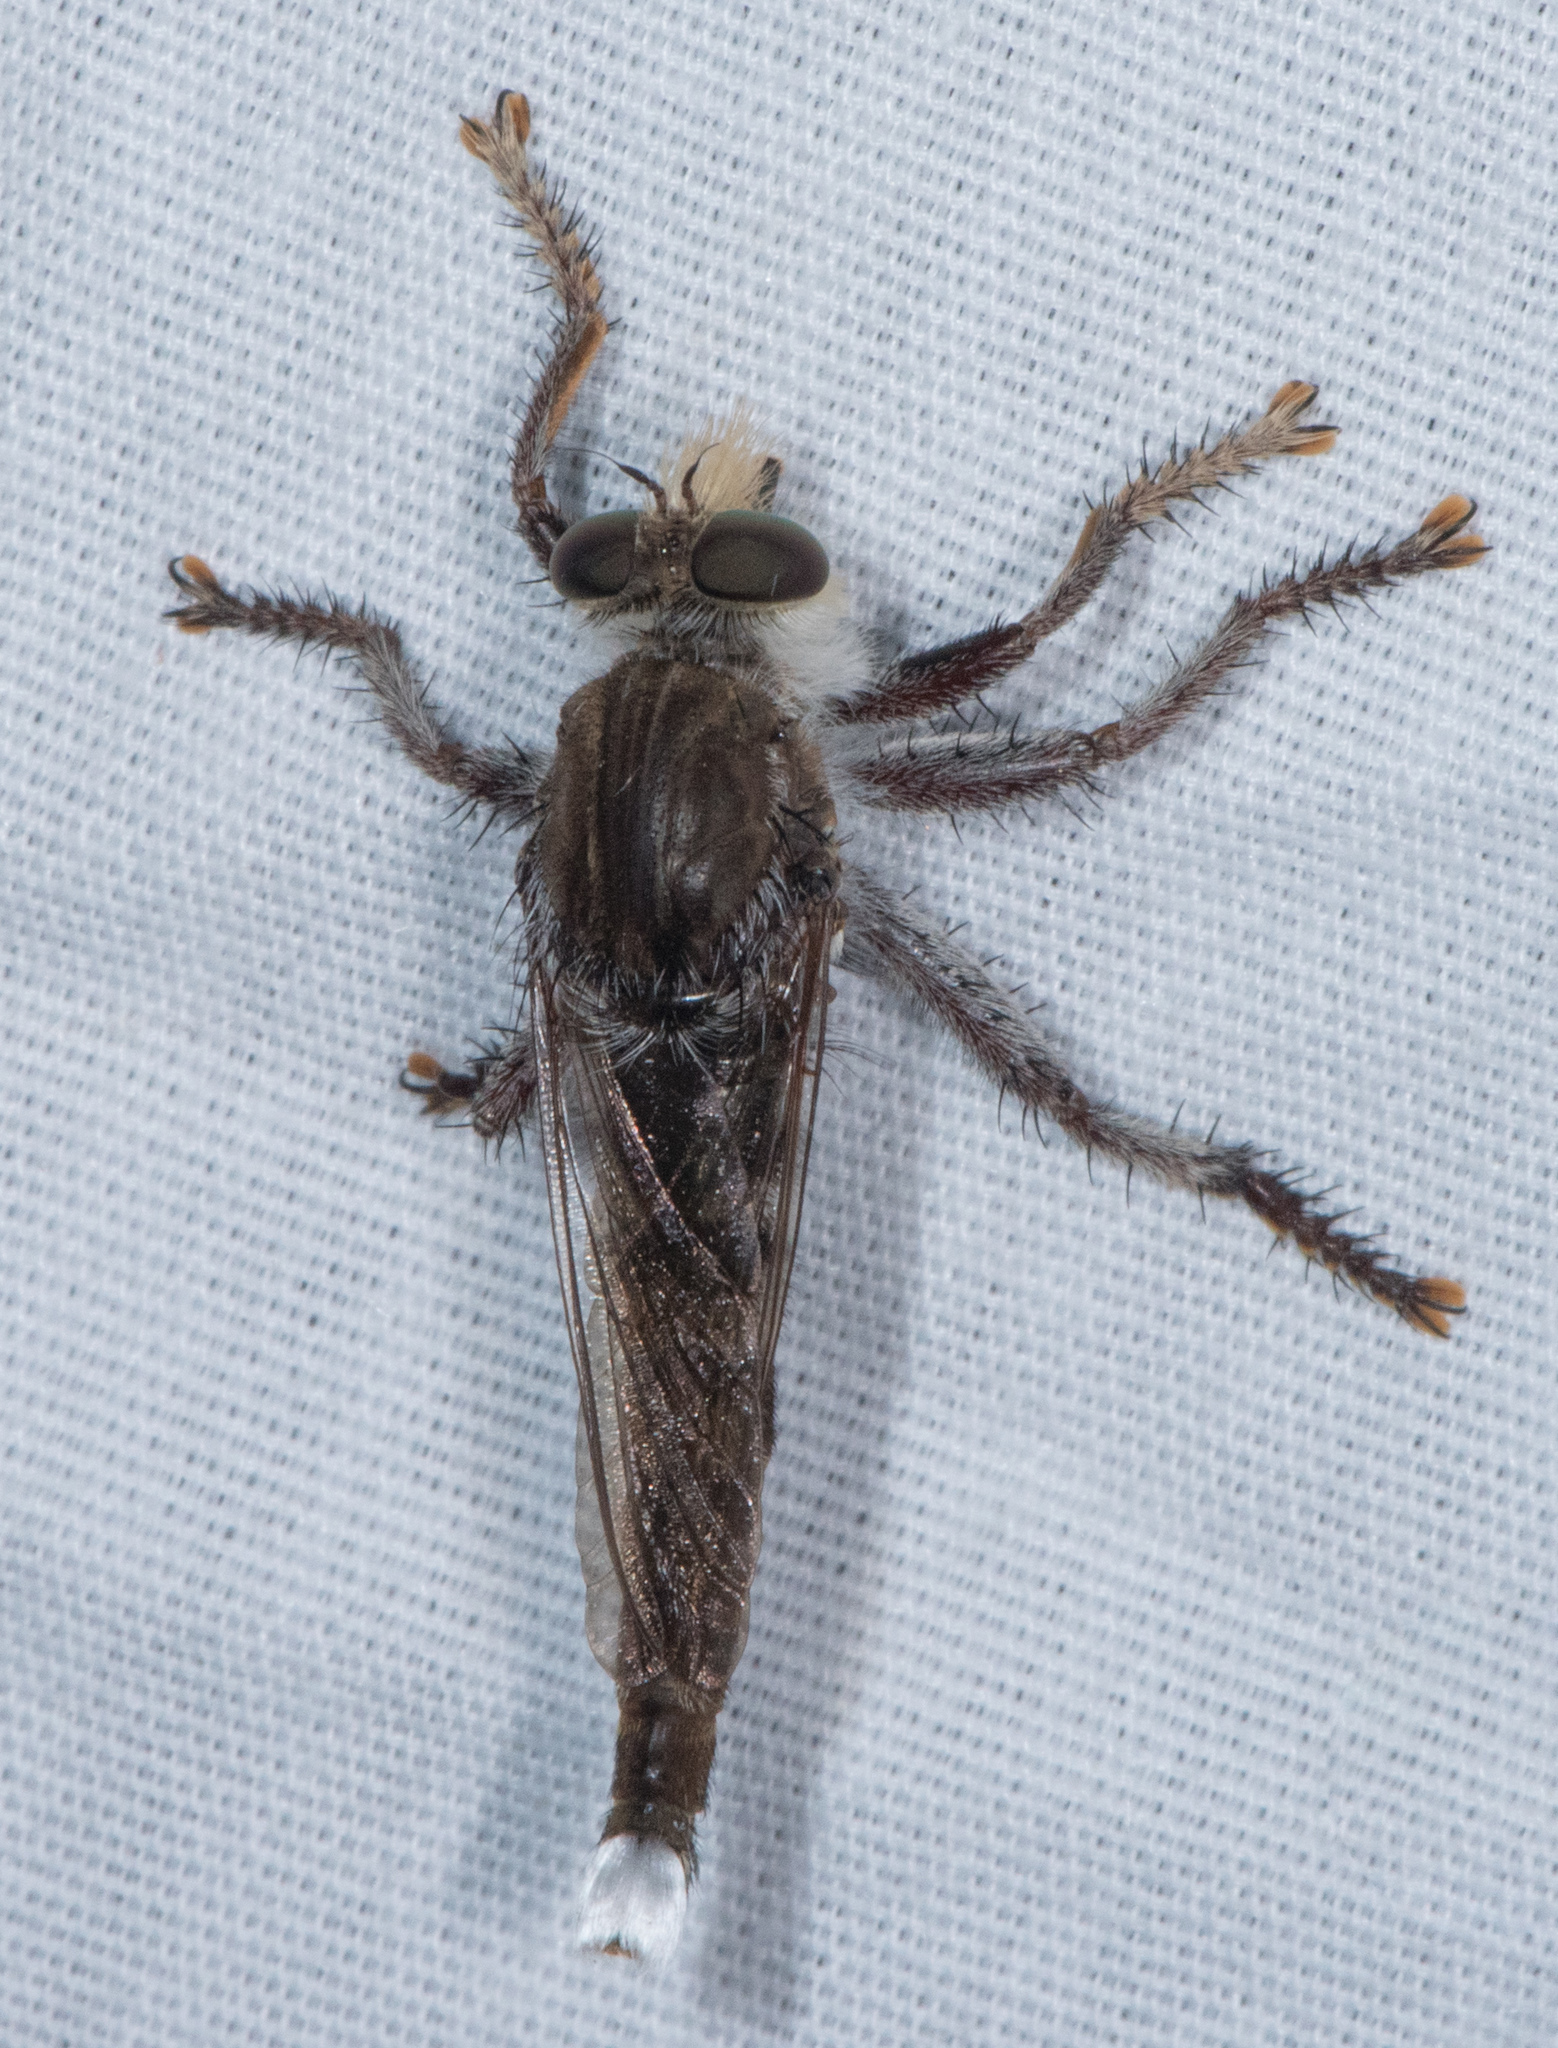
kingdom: Animalia
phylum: Arthropoda
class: Insecta
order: Diptera
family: Asilidae
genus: Promachus
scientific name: Promachus truquii
